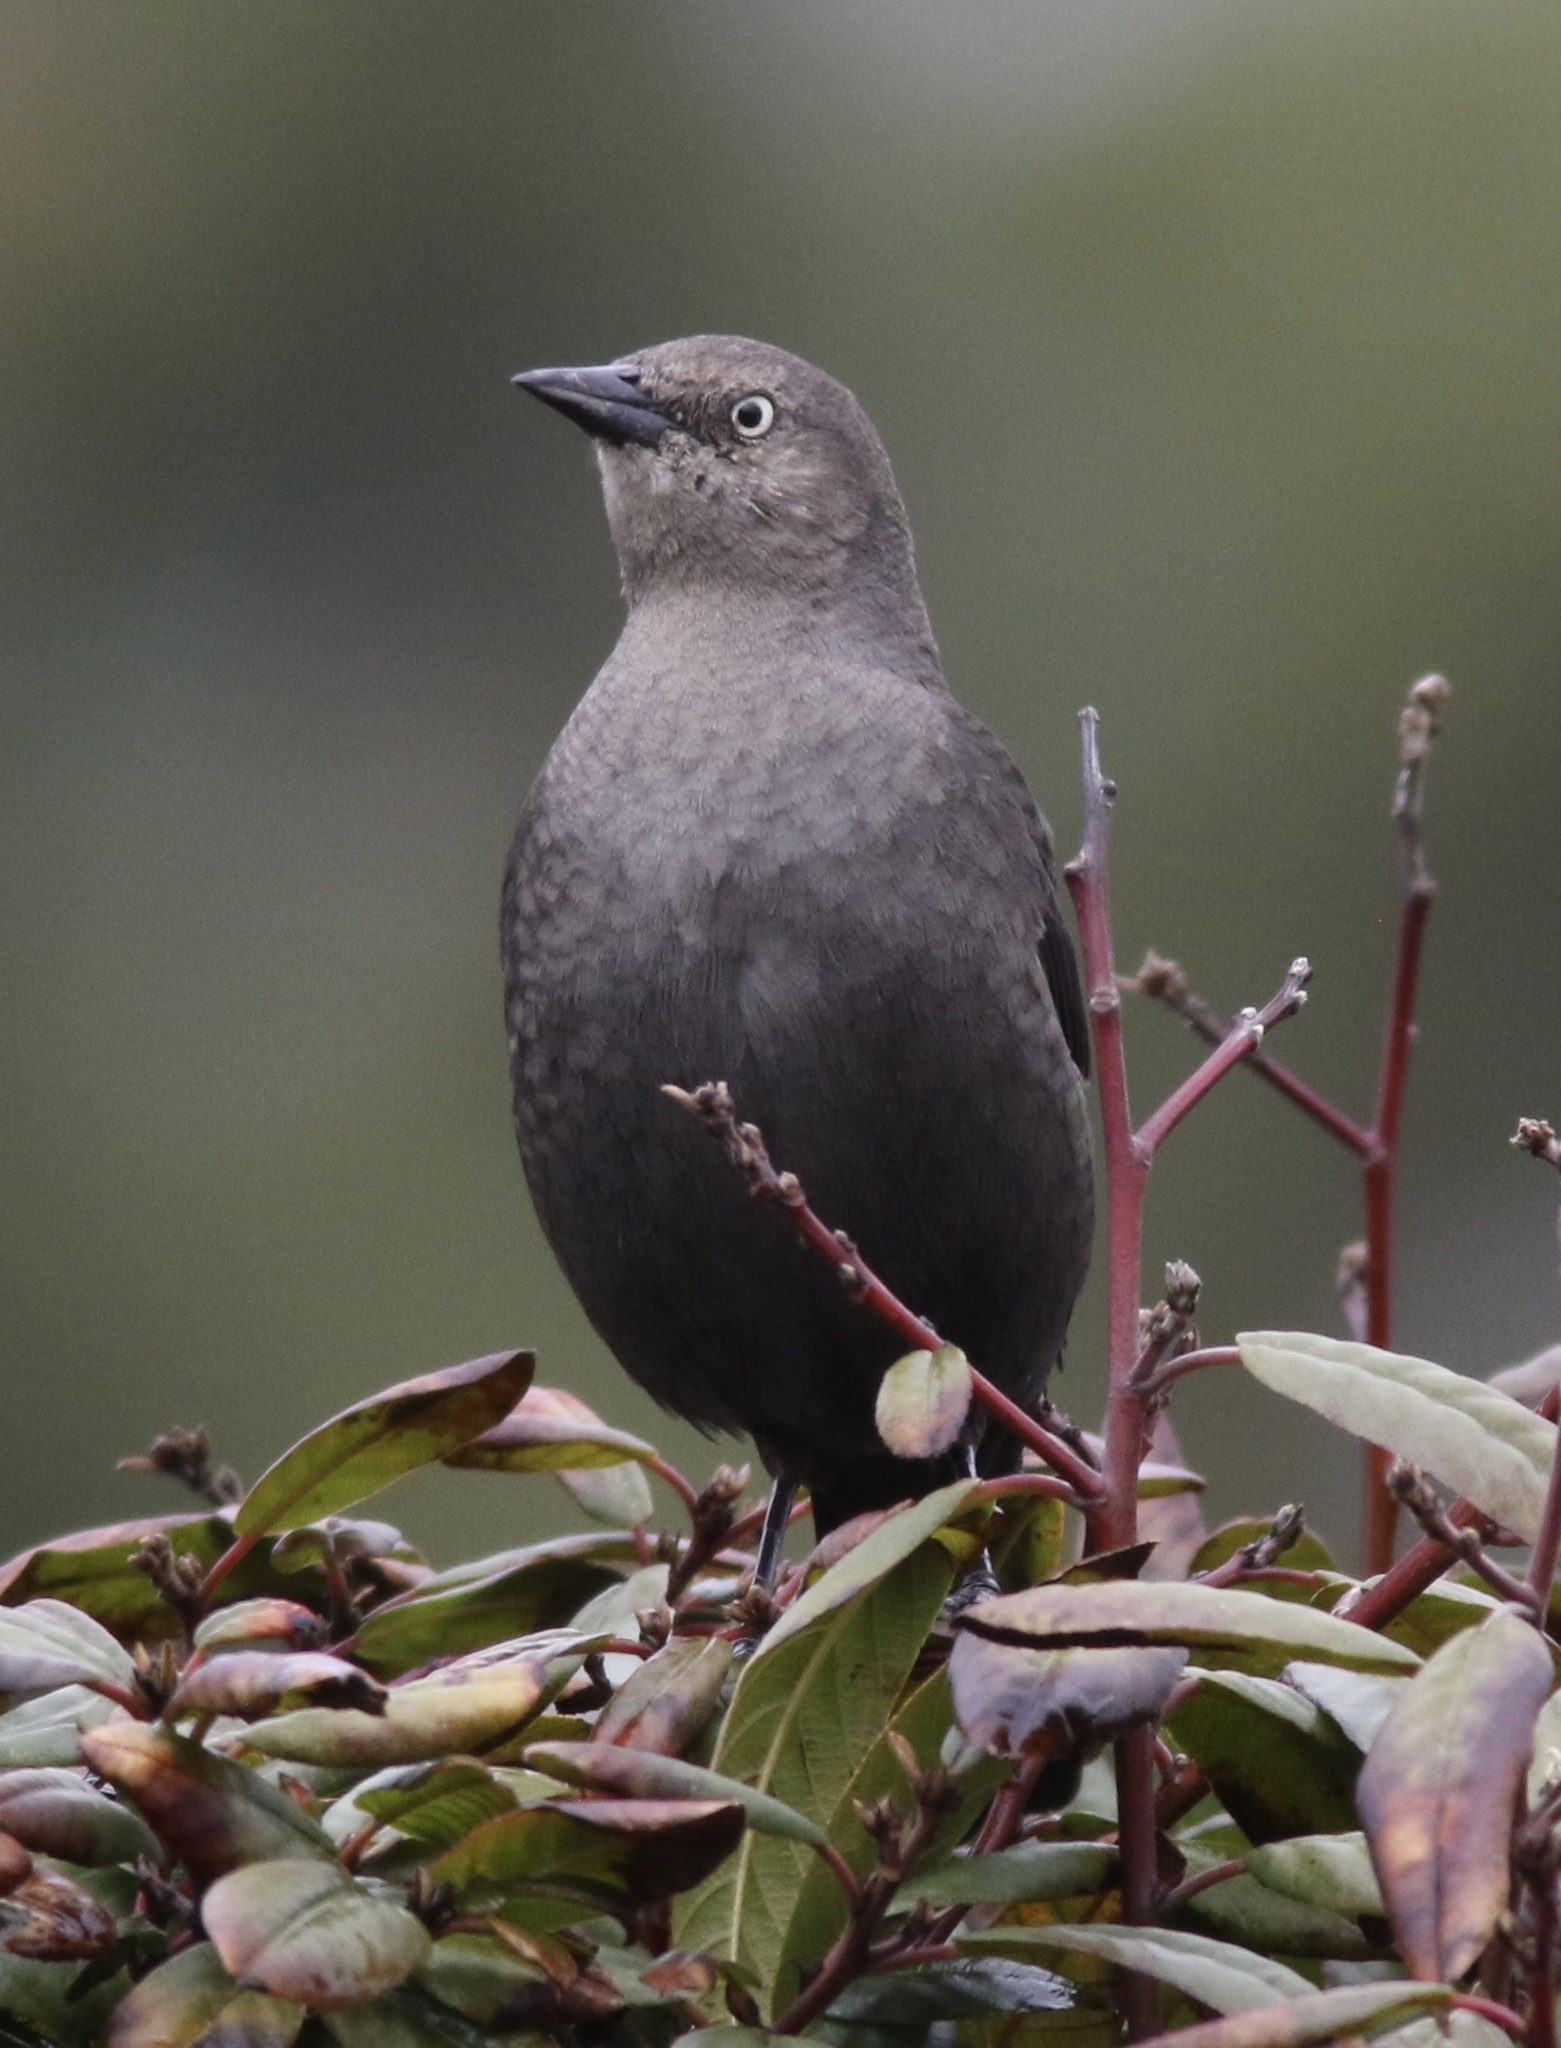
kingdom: Animalia
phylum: Chordata
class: Aves
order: Passeriformes
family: Icteridae
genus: Euphagus
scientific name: Euphagus cyanocephalus
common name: Brewer's blackbird
